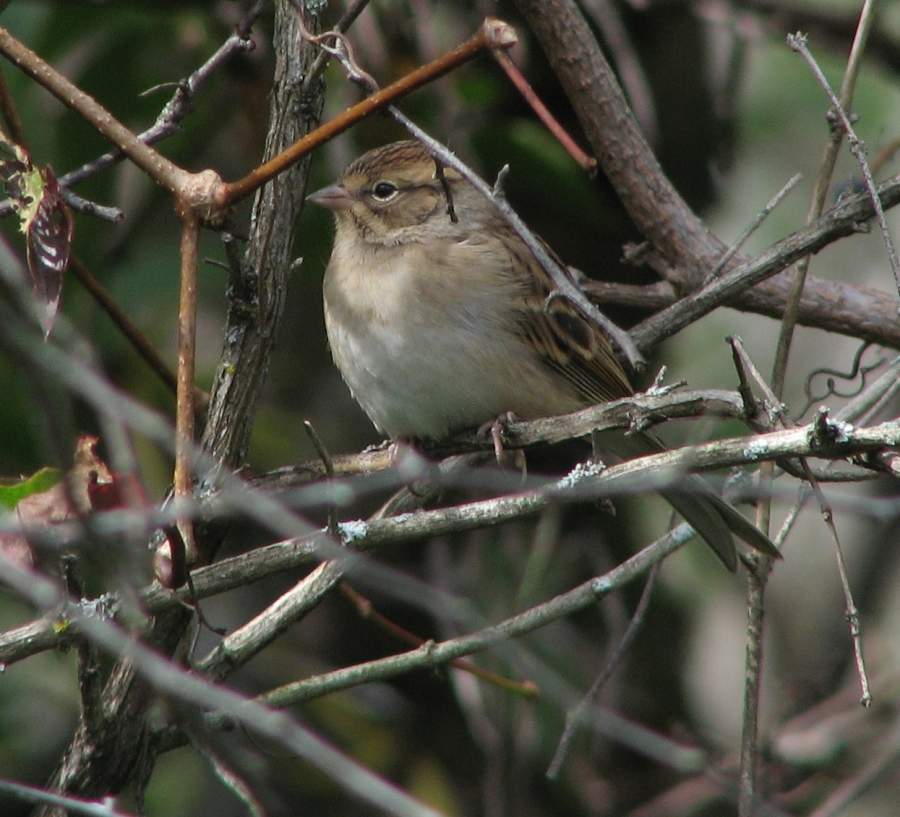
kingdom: Animalia
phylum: Chordata
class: Aves
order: Passeriformes
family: Passerellidae
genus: Spizella
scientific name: Spizella passerina
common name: Chipping sparrow
